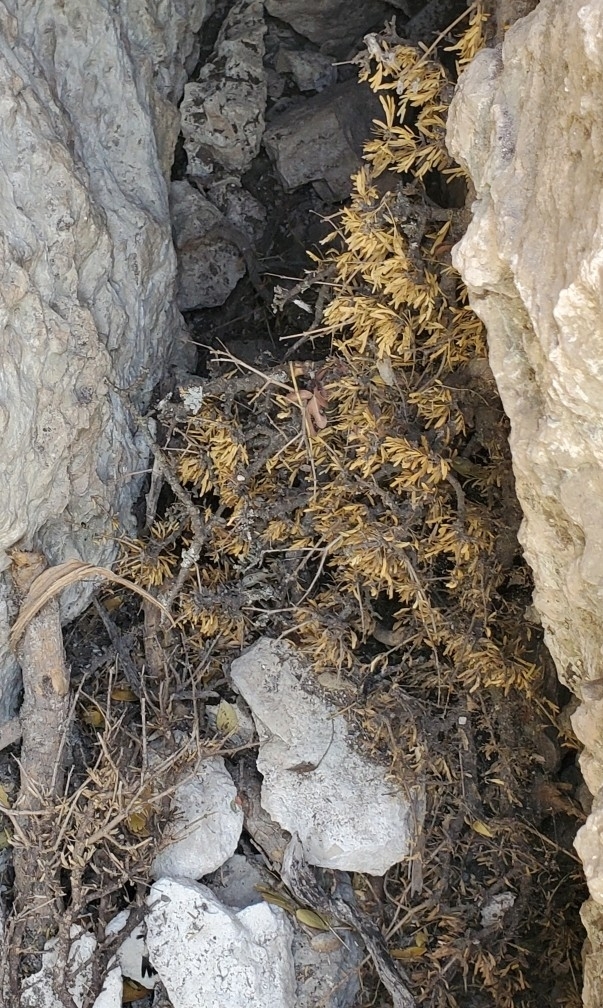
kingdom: Plantae
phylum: Tracheophyta
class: Magnoliopsida
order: Zygophyllales
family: Zygophyllaceae
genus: Porlieria
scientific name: Porlieria angustifolia
